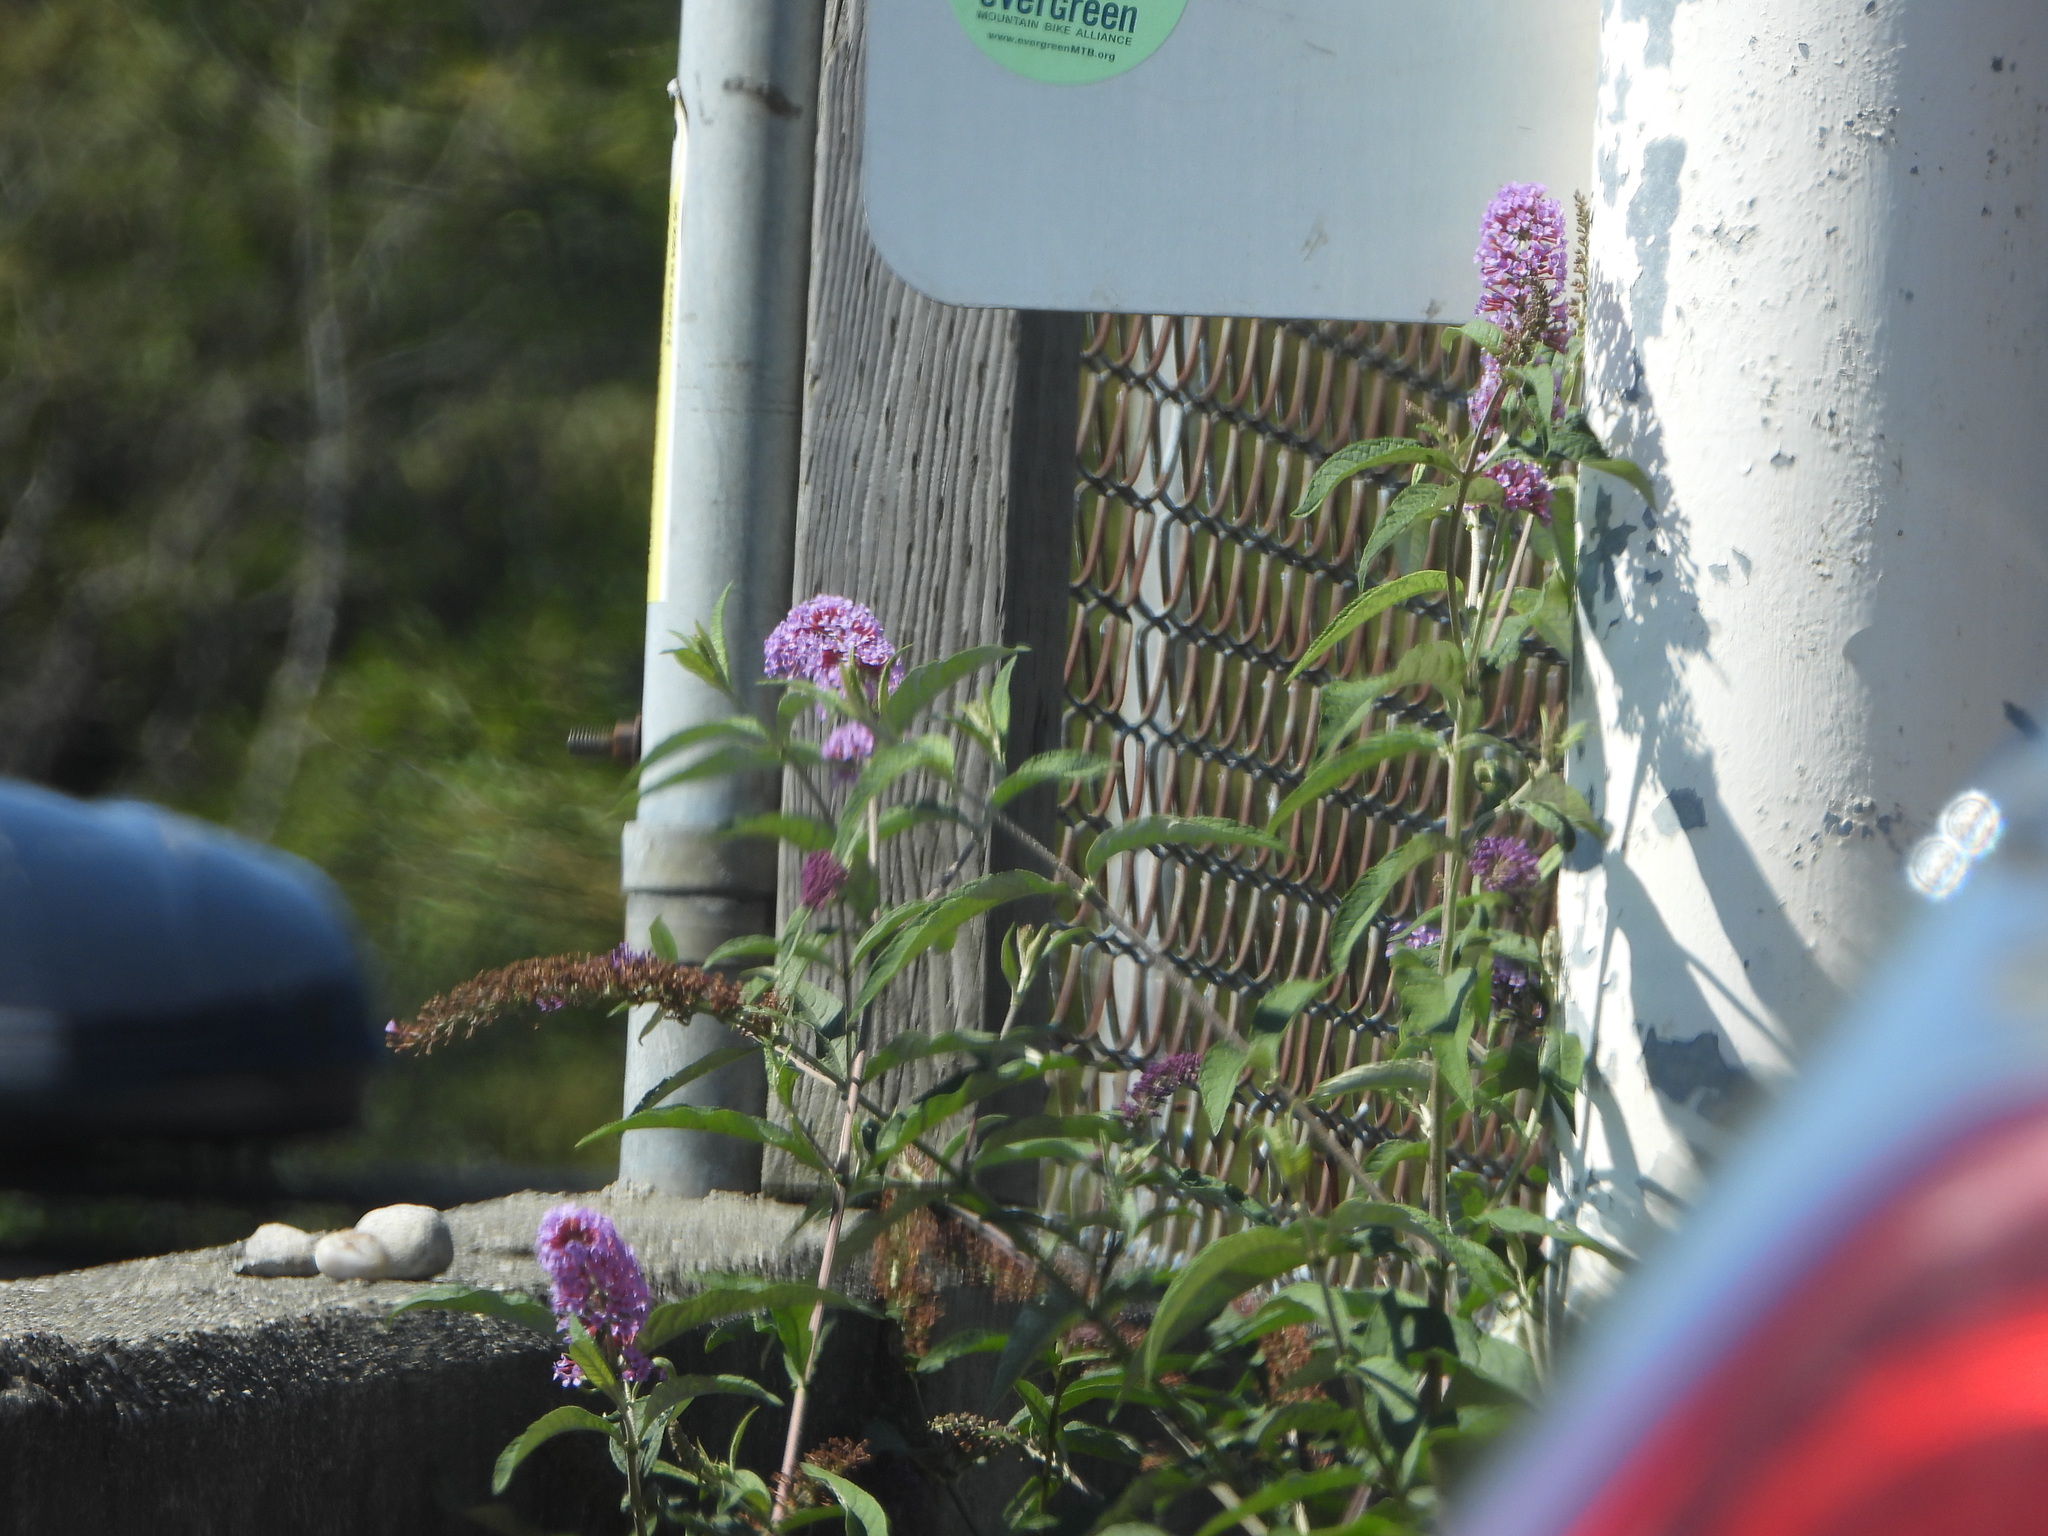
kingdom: Plantae
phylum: Tracheophyta
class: Magnoliopsida
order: Lamiales
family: Scrophulariaceae
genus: Buddleja
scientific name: Buddleja davidii
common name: Butterfly-bush
